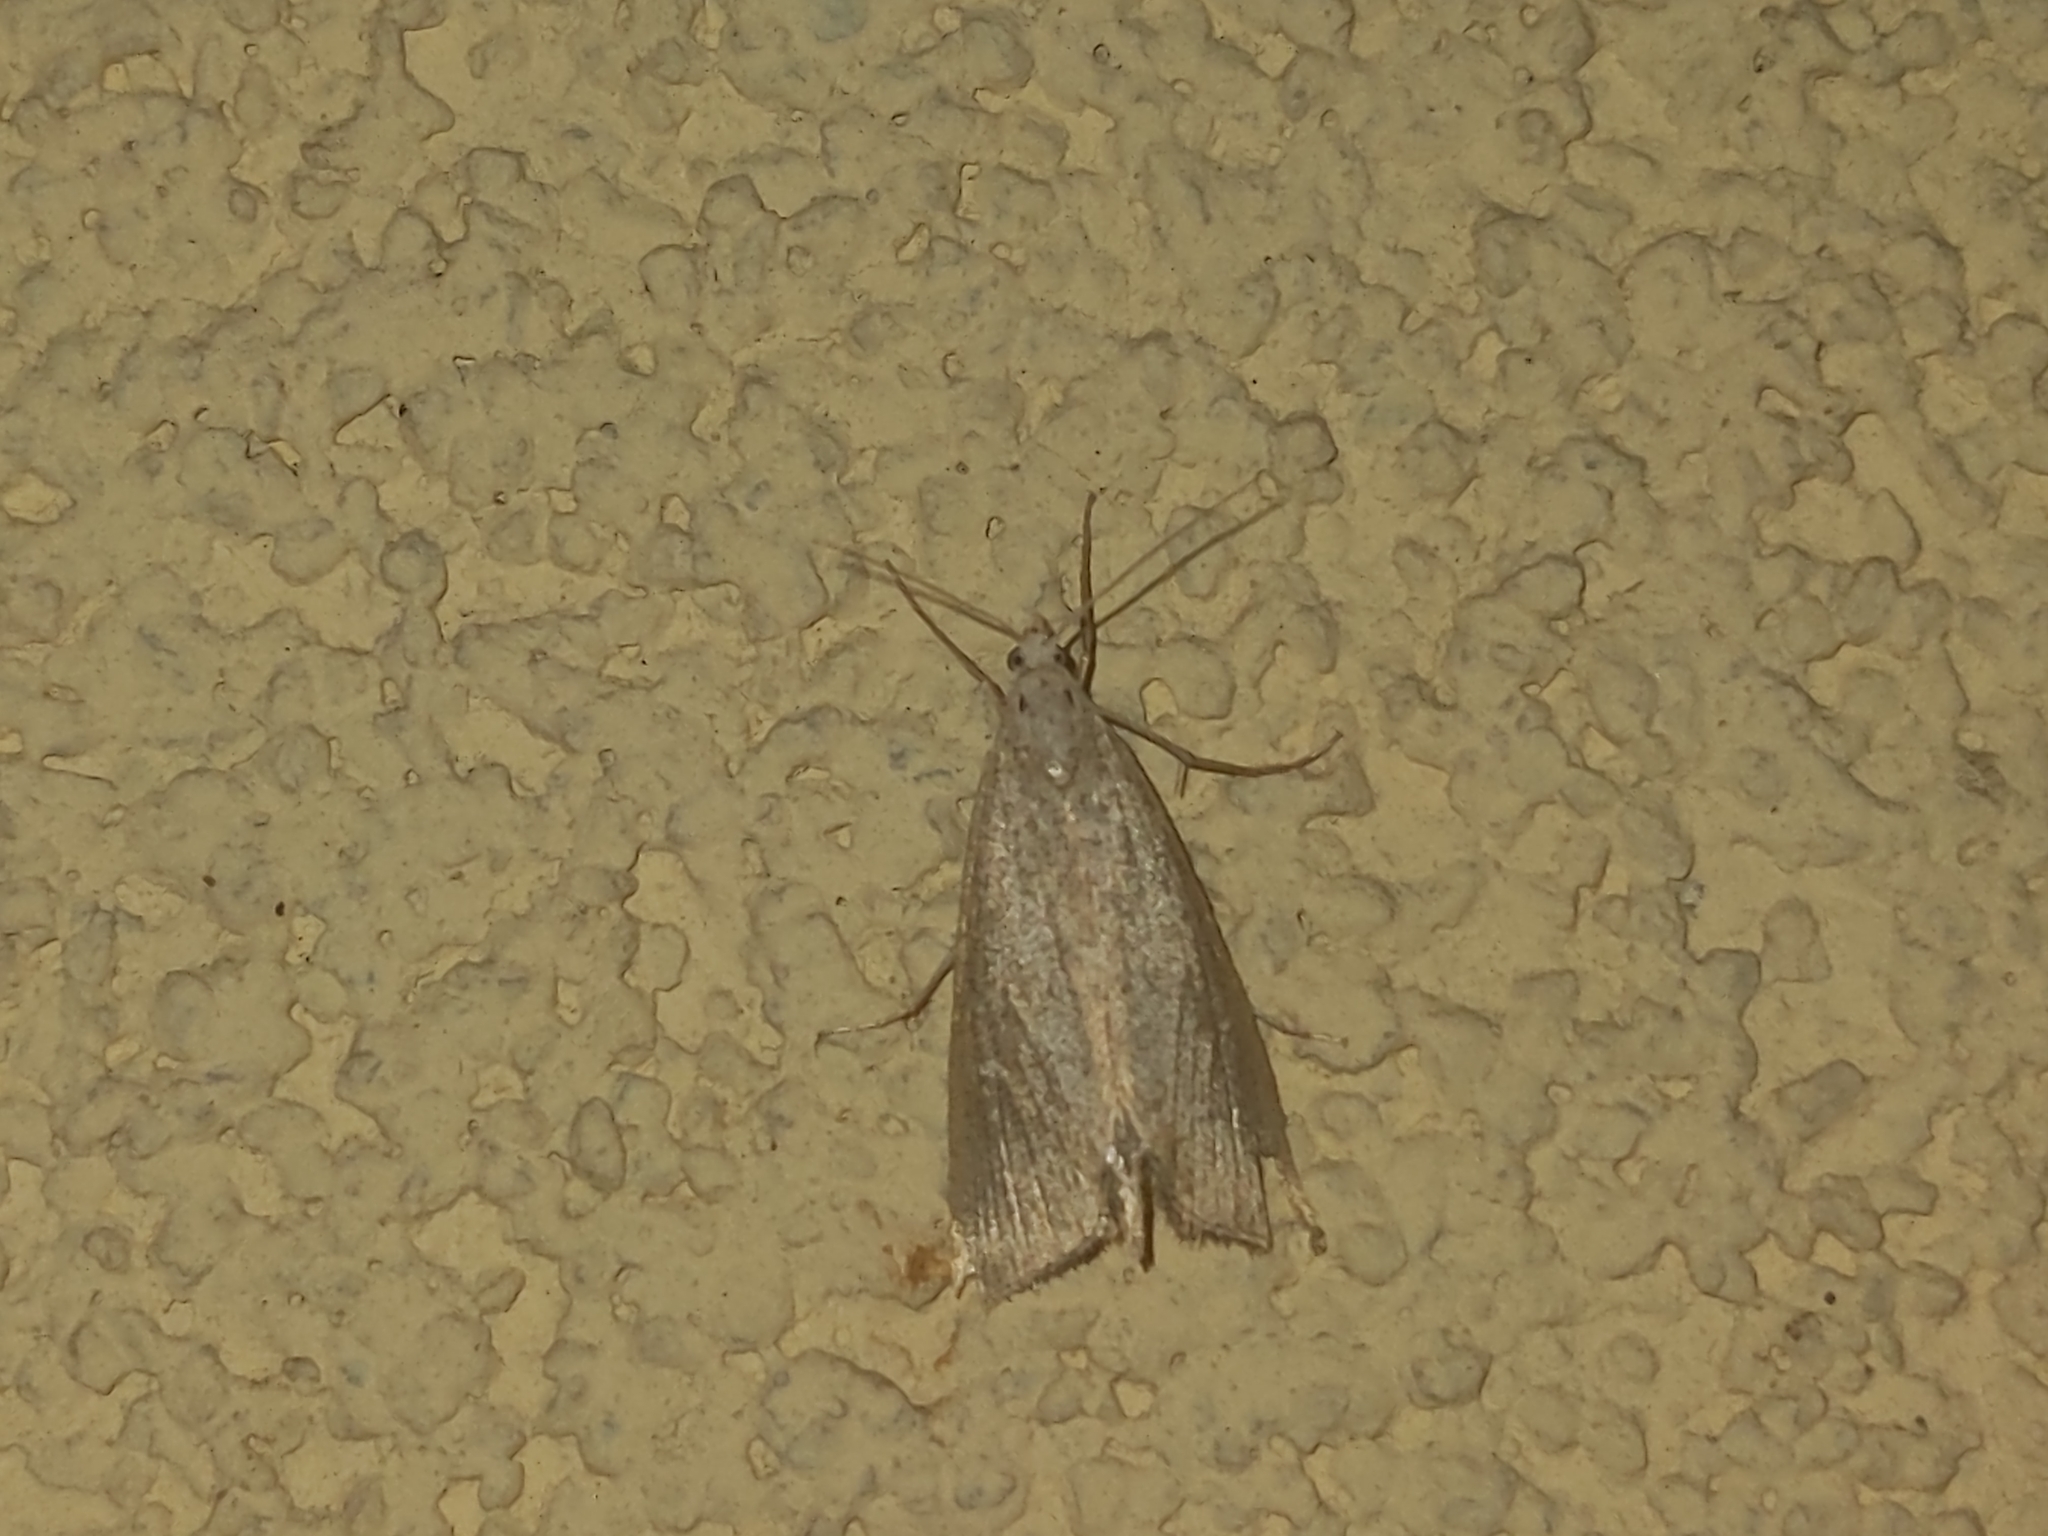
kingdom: Animalia
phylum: Arthropoda
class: Insecta
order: Lepidoptera
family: Crambidae
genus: Calamotropha
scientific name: Calamotropha paludella
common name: Bulrush veneer
